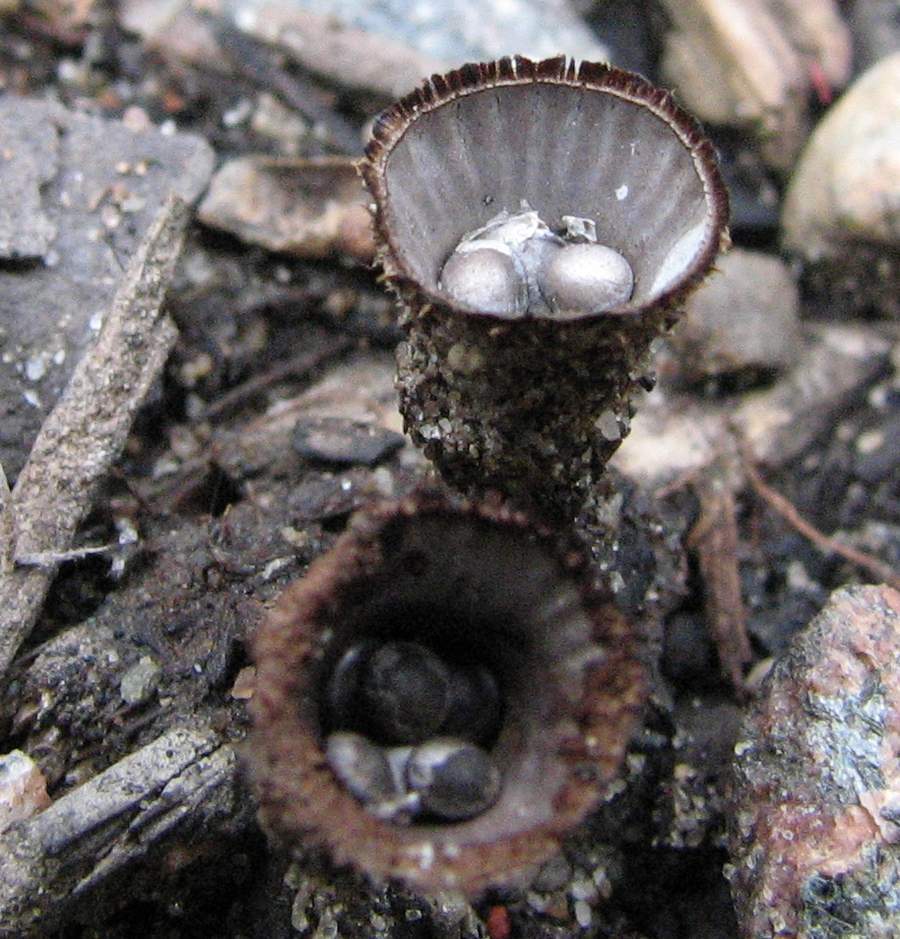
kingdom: Fungi
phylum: Basidiomycota
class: Agaricomycetes
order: Agaricales
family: Agaricaceae
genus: Cyathus
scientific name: Cyathus striatus
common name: Fluted bird's nest
